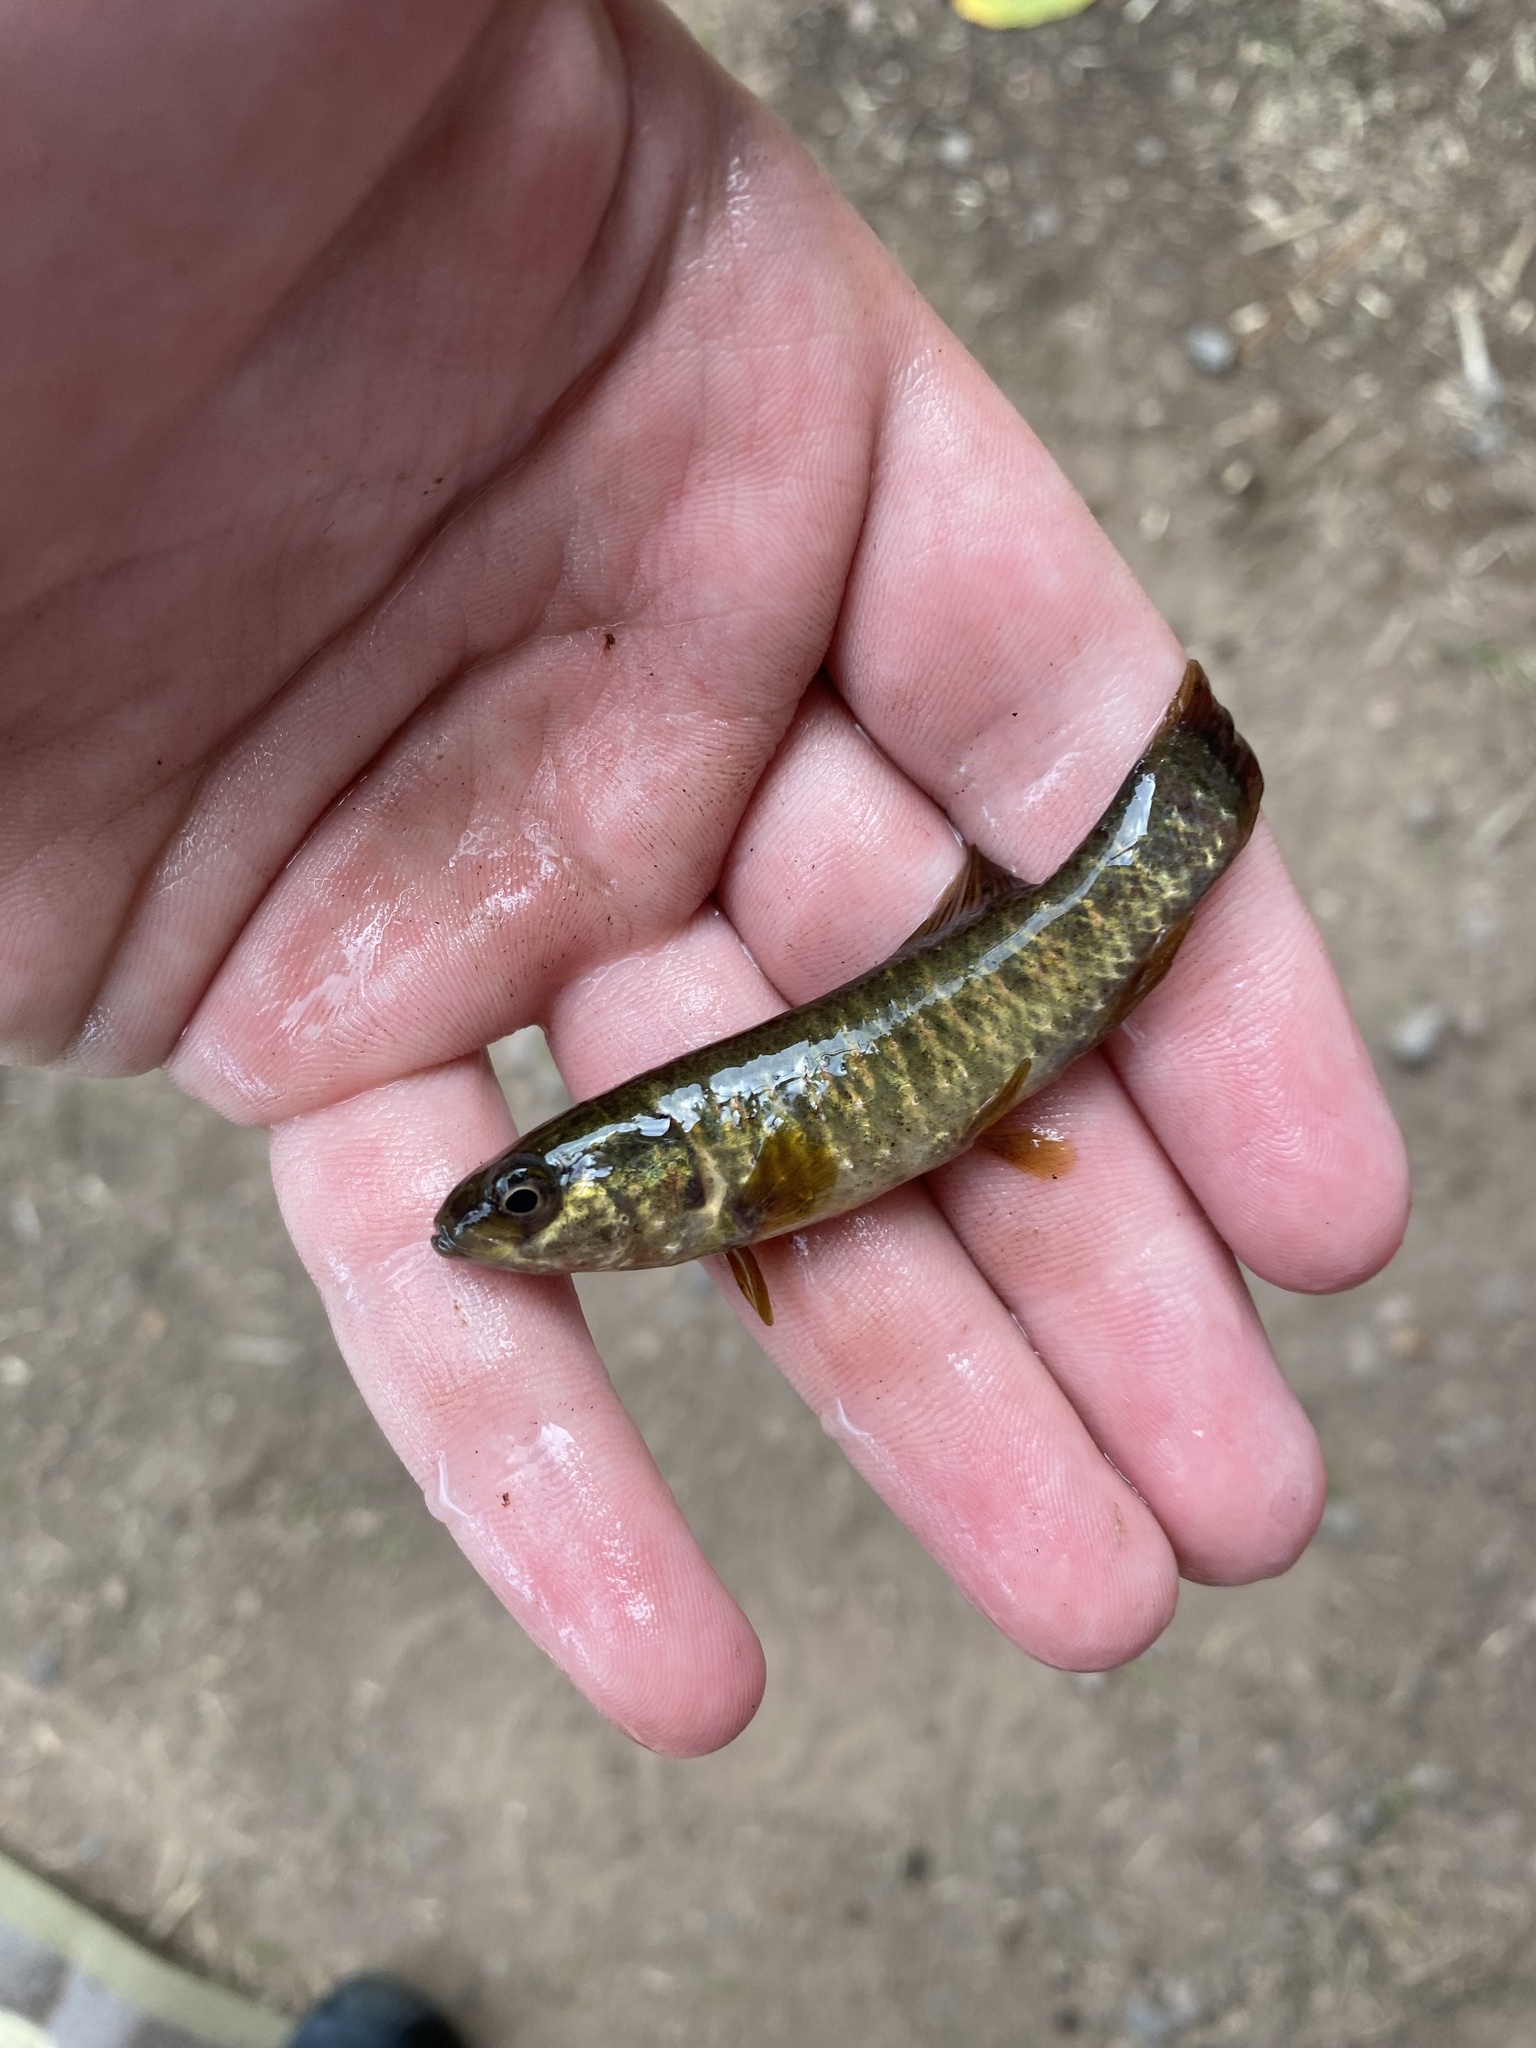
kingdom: Animalia
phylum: Chordata
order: Esociformes
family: Umbridae
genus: Umbra
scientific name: Umbra limi
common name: Central mudminnow
